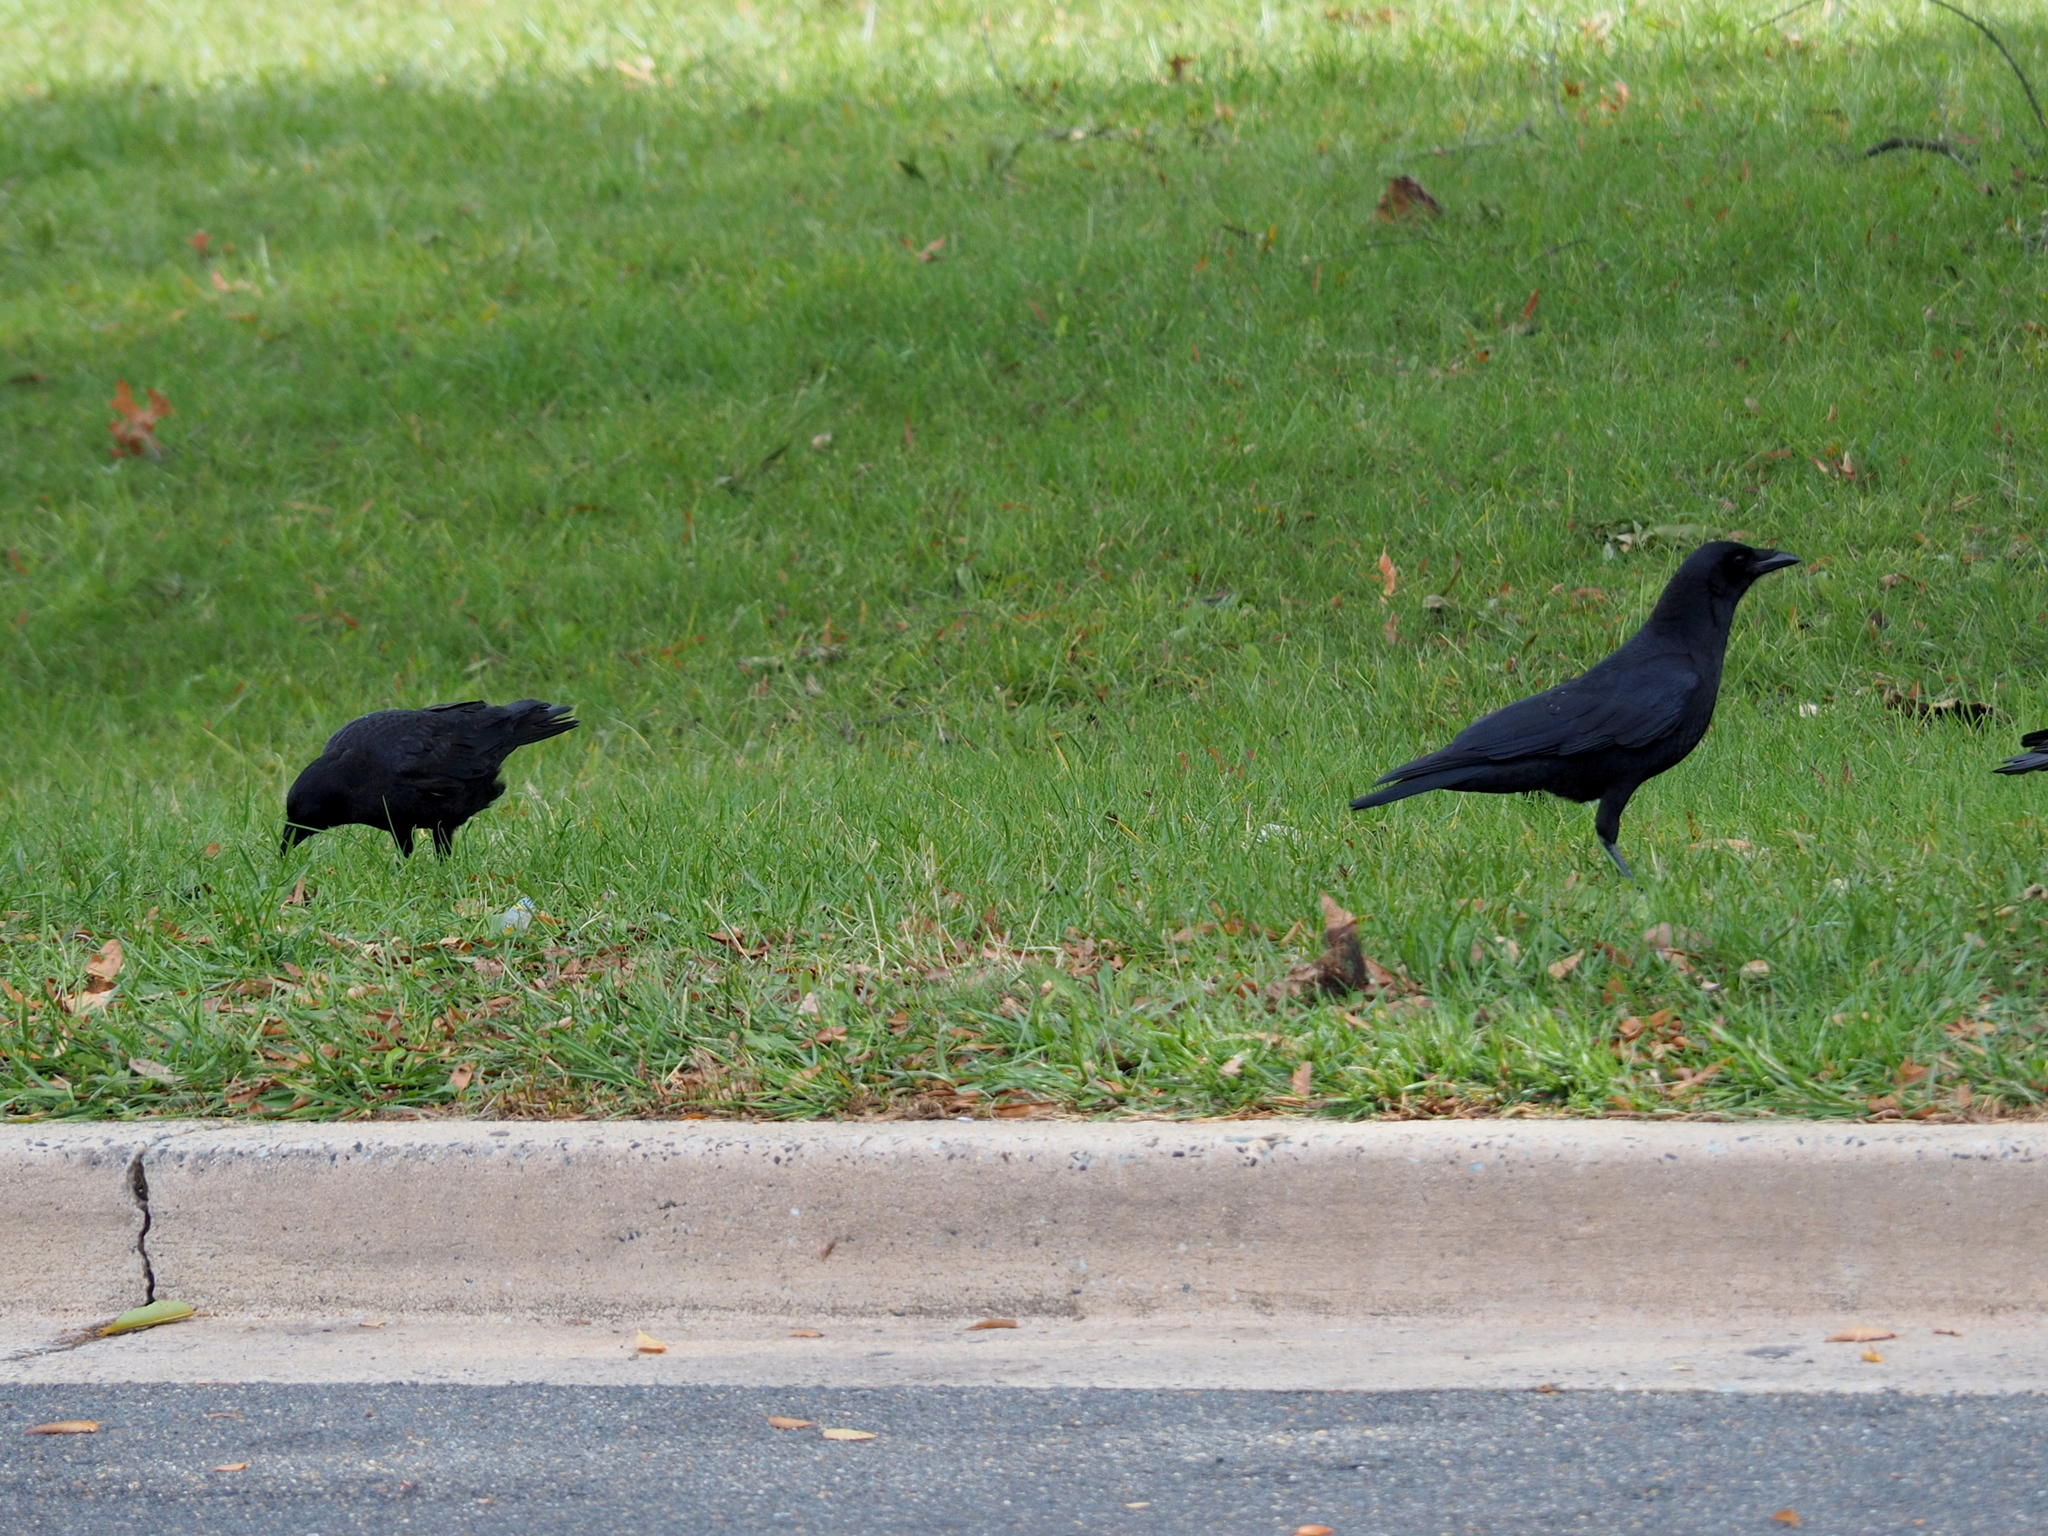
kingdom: Animalia
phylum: Chordata
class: Aves
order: Passeriformes
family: Corvidae
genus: Corvus
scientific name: Corvus brachyrhynchos
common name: American crow
